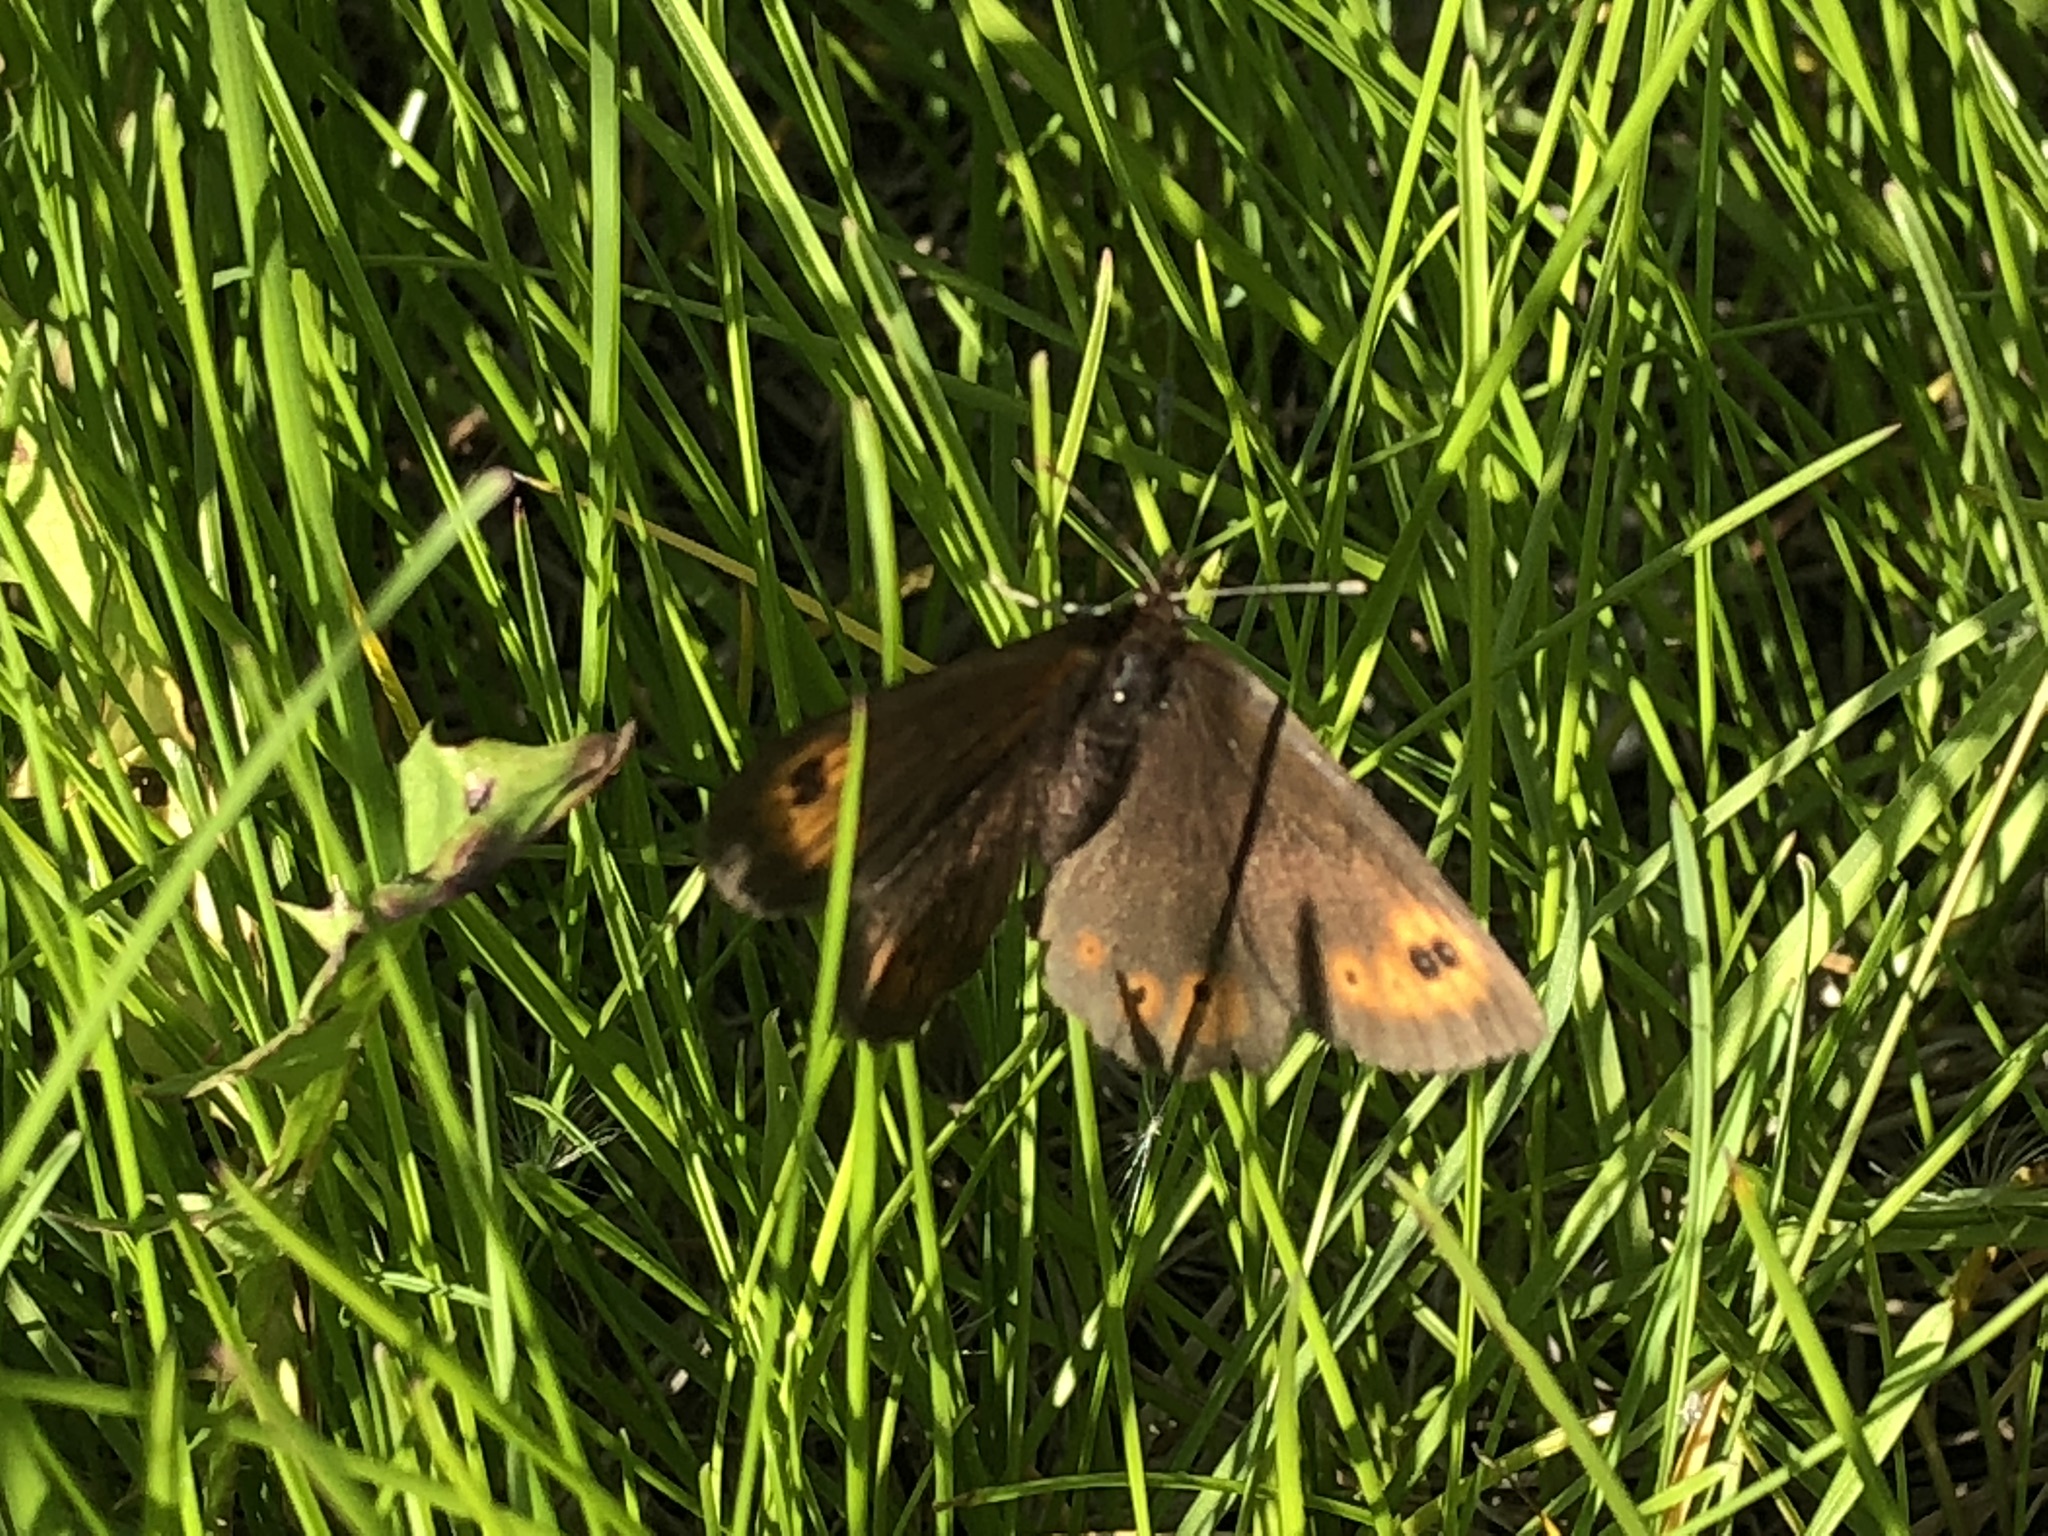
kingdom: Animalia
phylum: Arthropoda
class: Insecta
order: Lepidoptera
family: Nymphalidae
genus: Erebia
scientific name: Erebia epipsodea
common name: Common alpine
